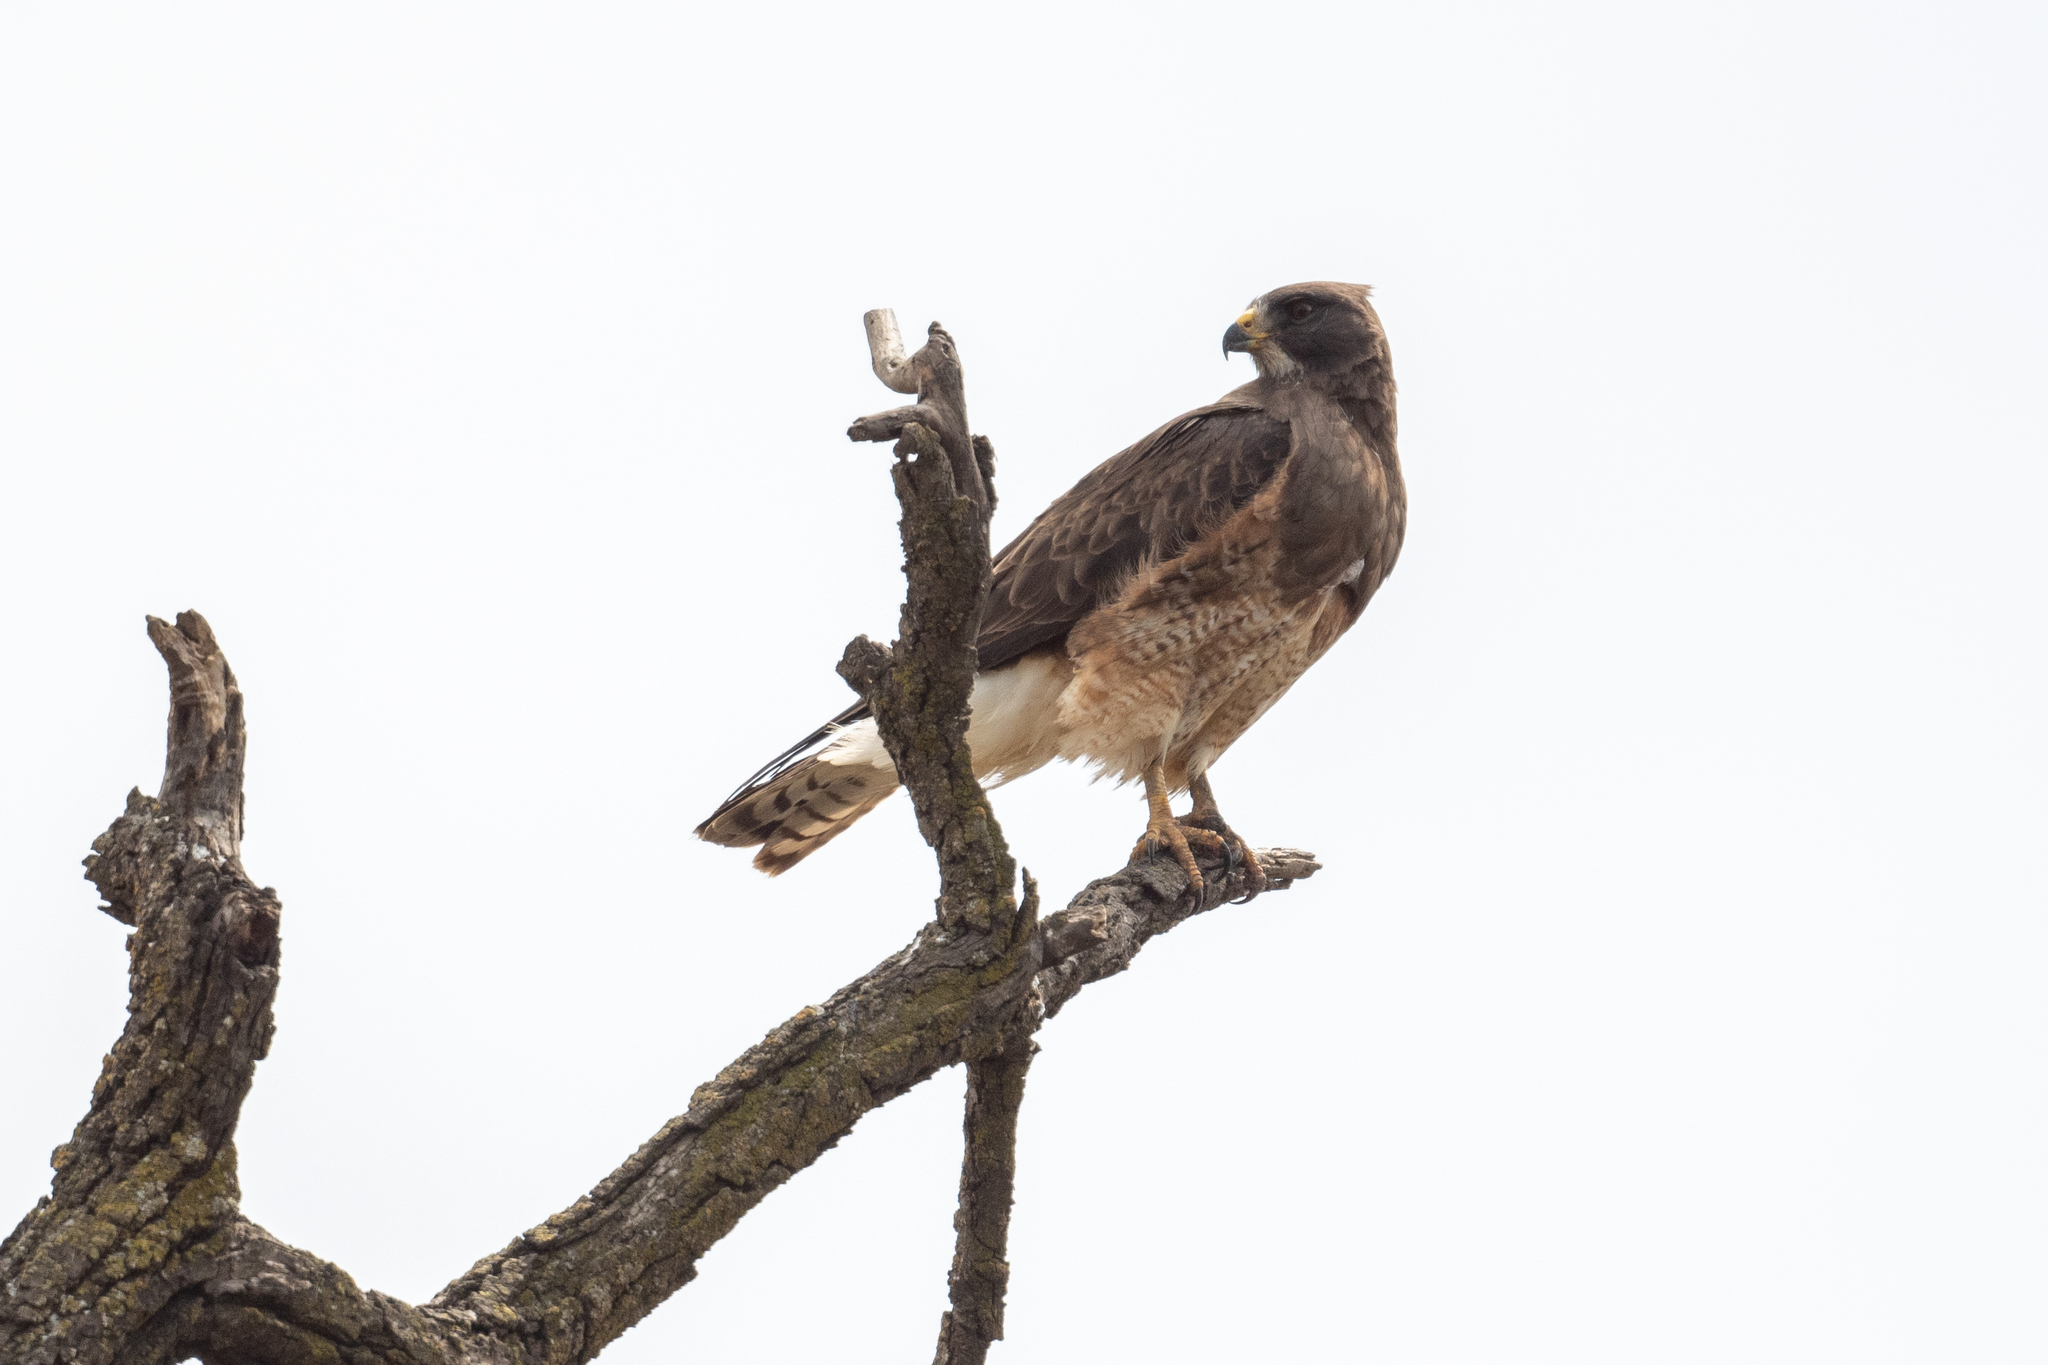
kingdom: Animalia
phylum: Chordata
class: Aves
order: Accipitriformes
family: Accipitridae
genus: Buteo
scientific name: Buteo swainsoni
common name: Swainson's hawk
